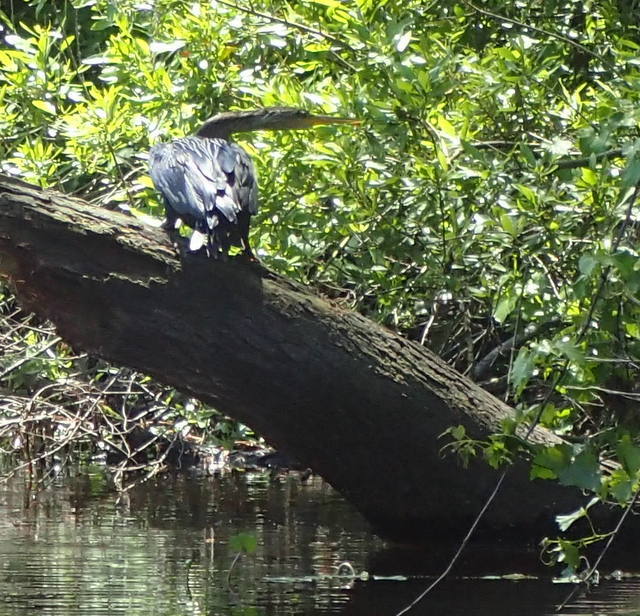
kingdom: Animalia
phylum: Chordata
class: Aves
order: Suliformes
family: Anhingidae
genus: Anhinga
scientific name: Anhinga anhinga
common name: Anhinga
